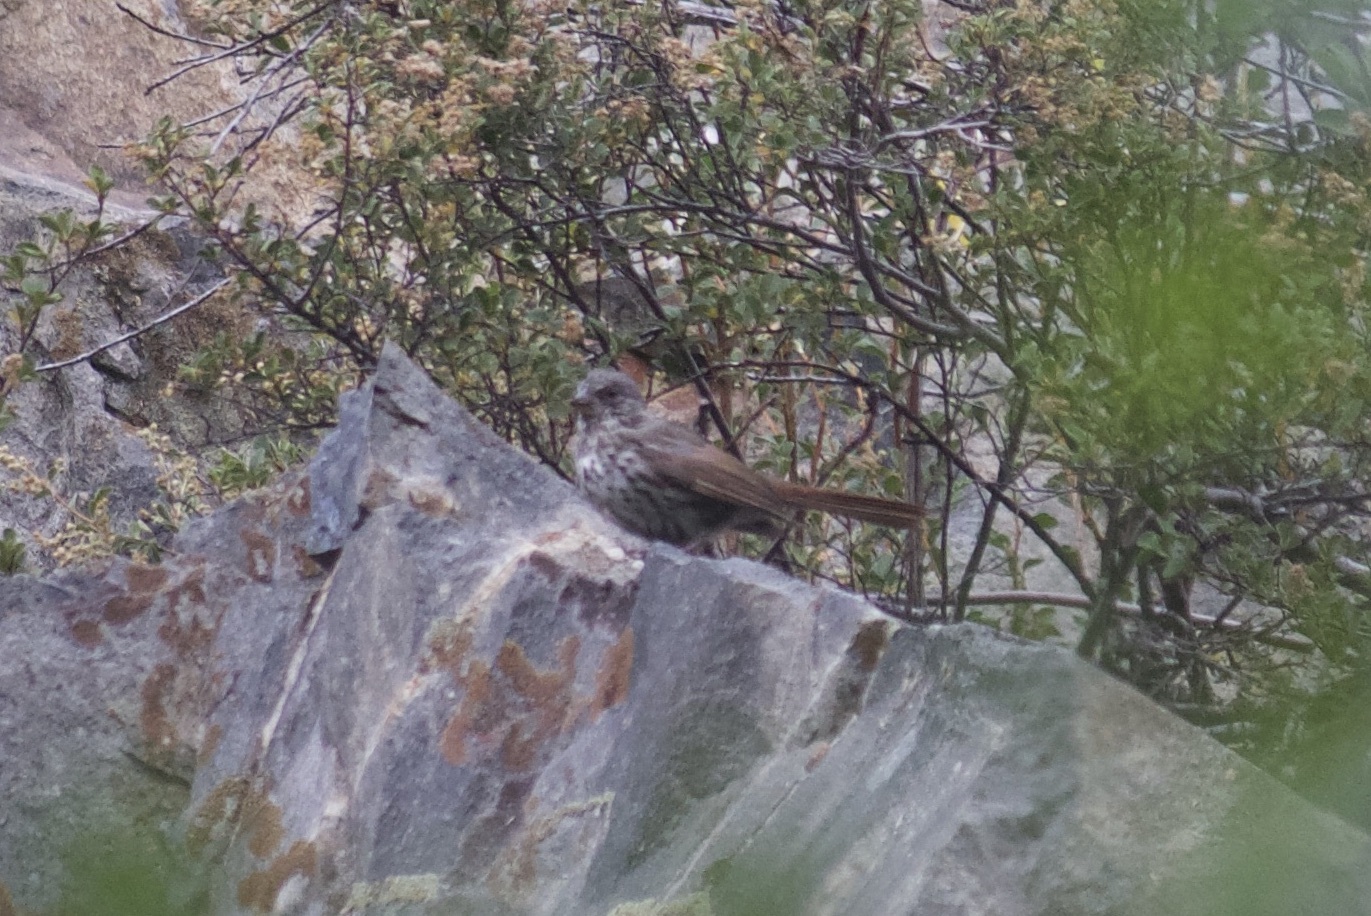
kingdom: Animalia
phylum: Chordata
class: Aves
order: Passeriformes
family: Passerellidae
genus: Passerella
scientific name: Passerella iliaca
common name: Fox sparrow
